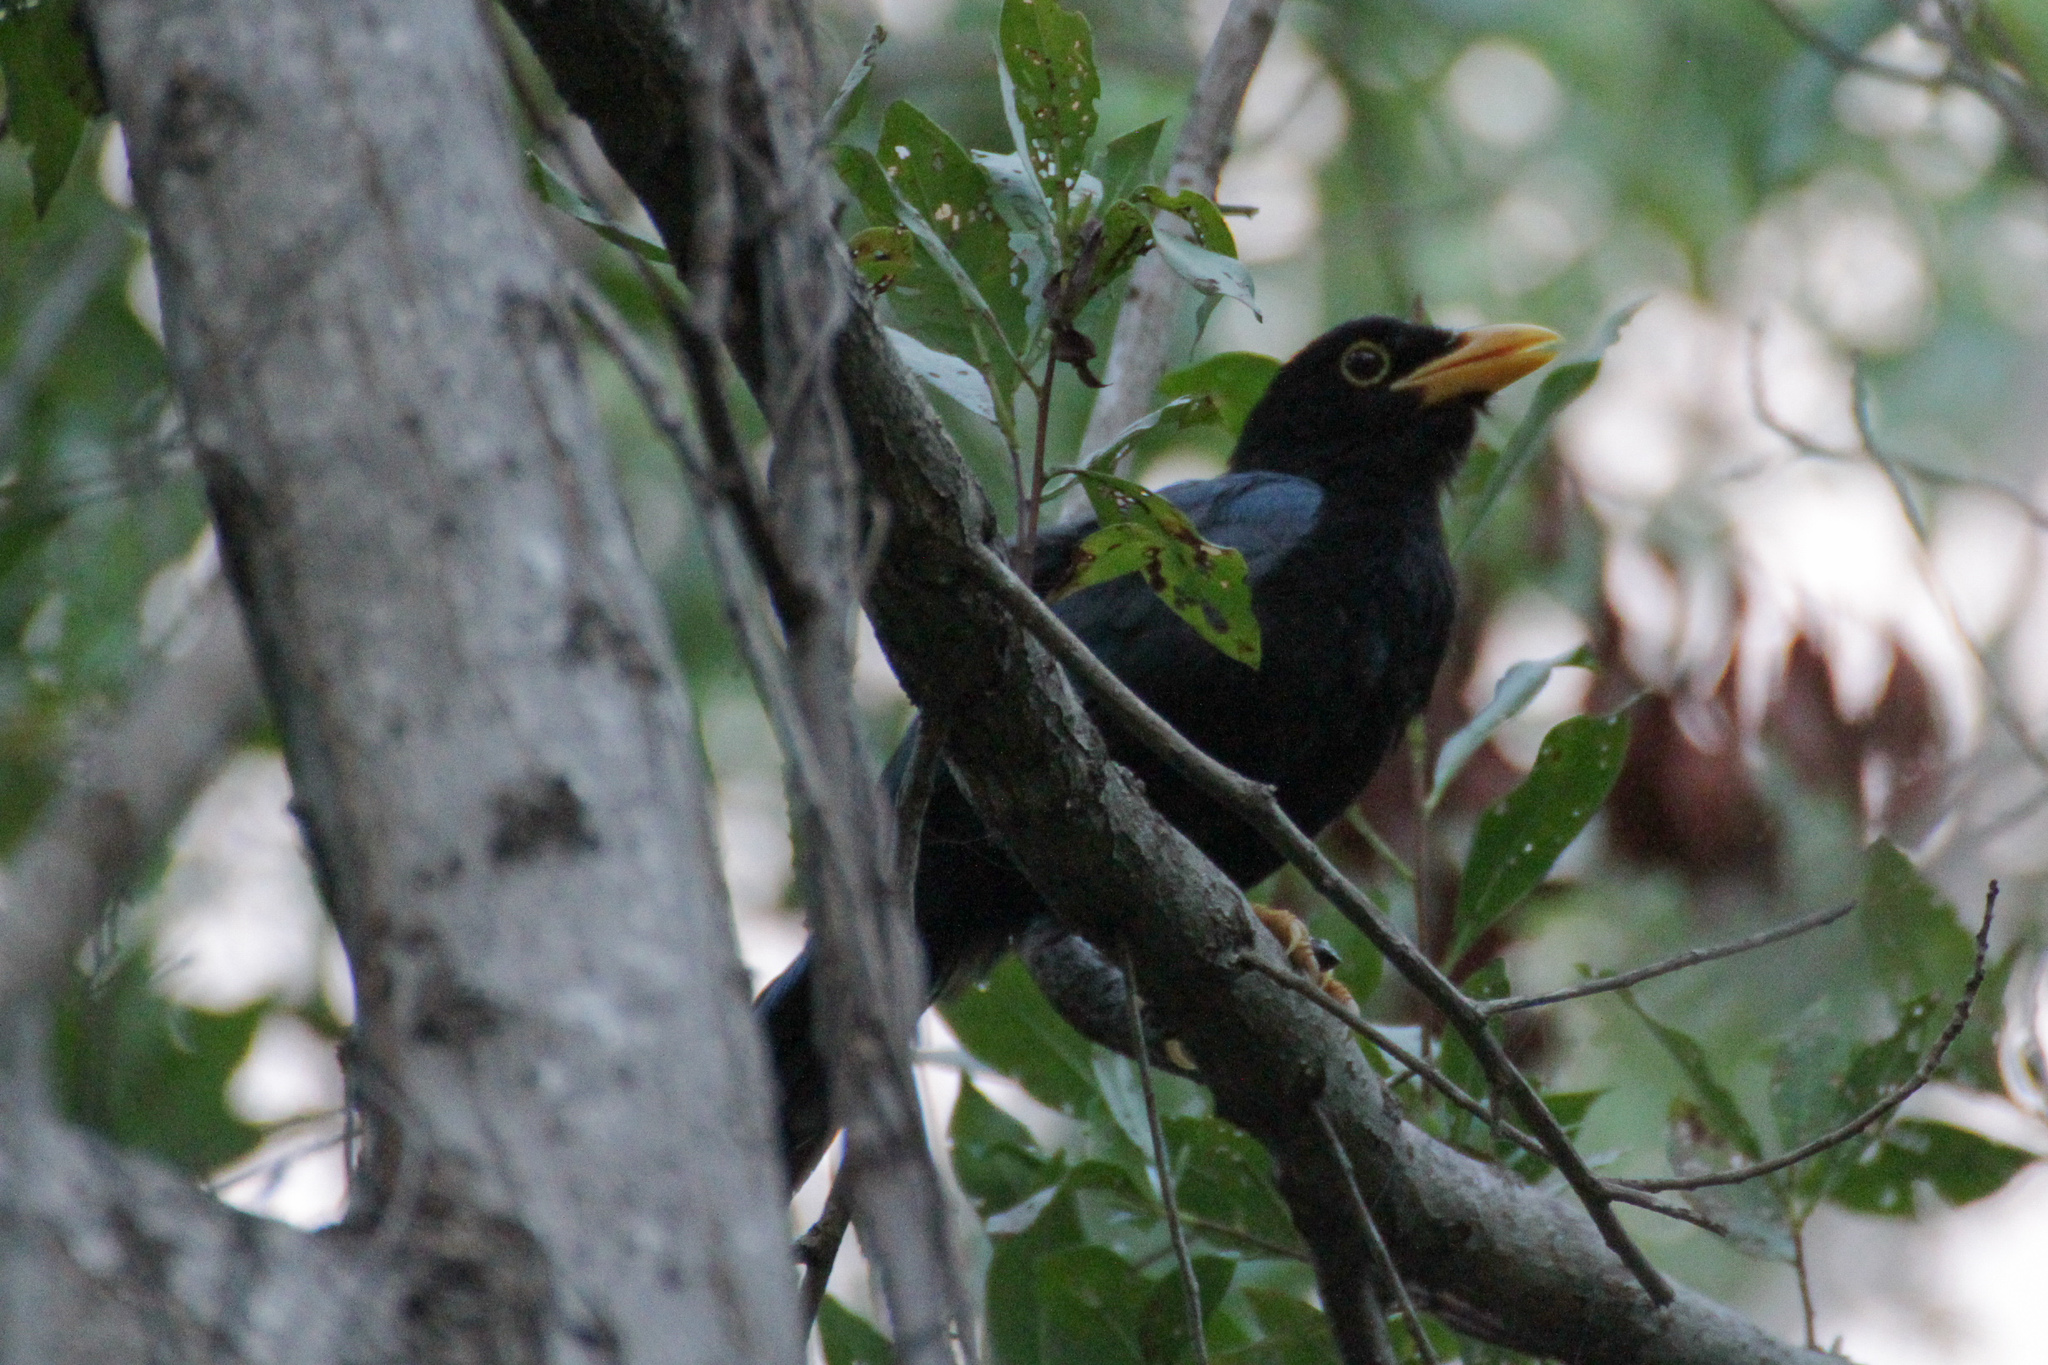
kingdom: Animalia
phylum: Chordata
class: Aves
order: Passeriformes
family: Corvidae
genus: Cyanocorax
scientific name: Cyanocorax yucatanicus
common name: Yucatan jay
